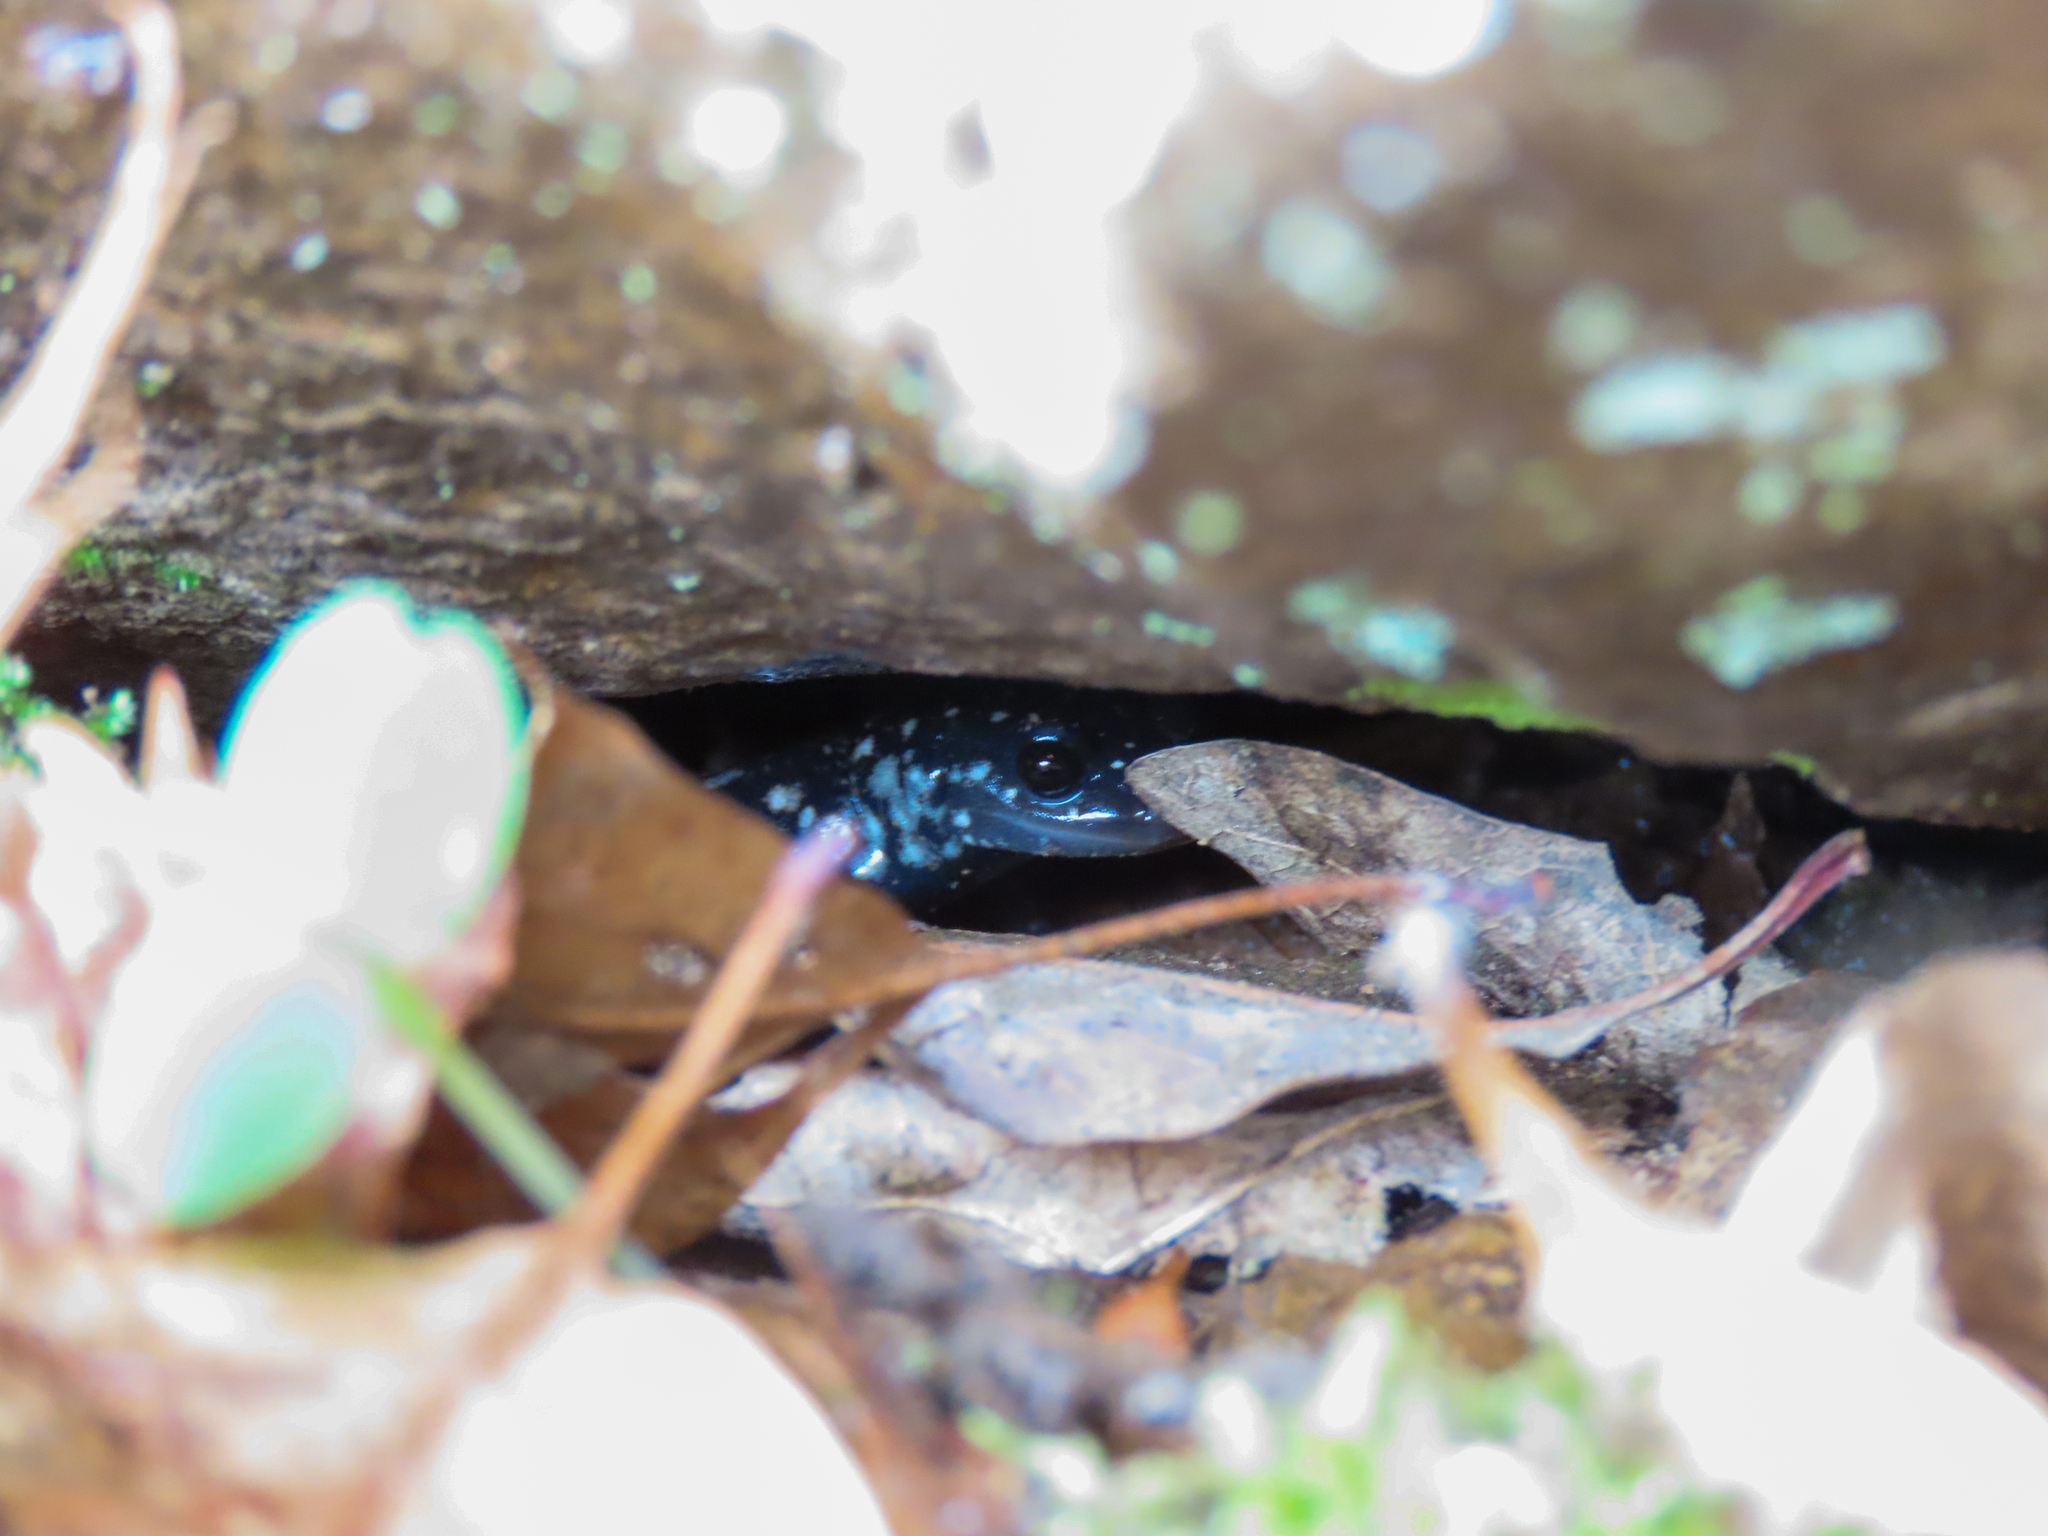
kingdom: Animalia
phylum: Chordata
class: Amphibia
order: Caudata
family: Plethodontidae
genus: Plethodon
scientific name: Plethodon glutinosus
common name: Northern slimy salamander
